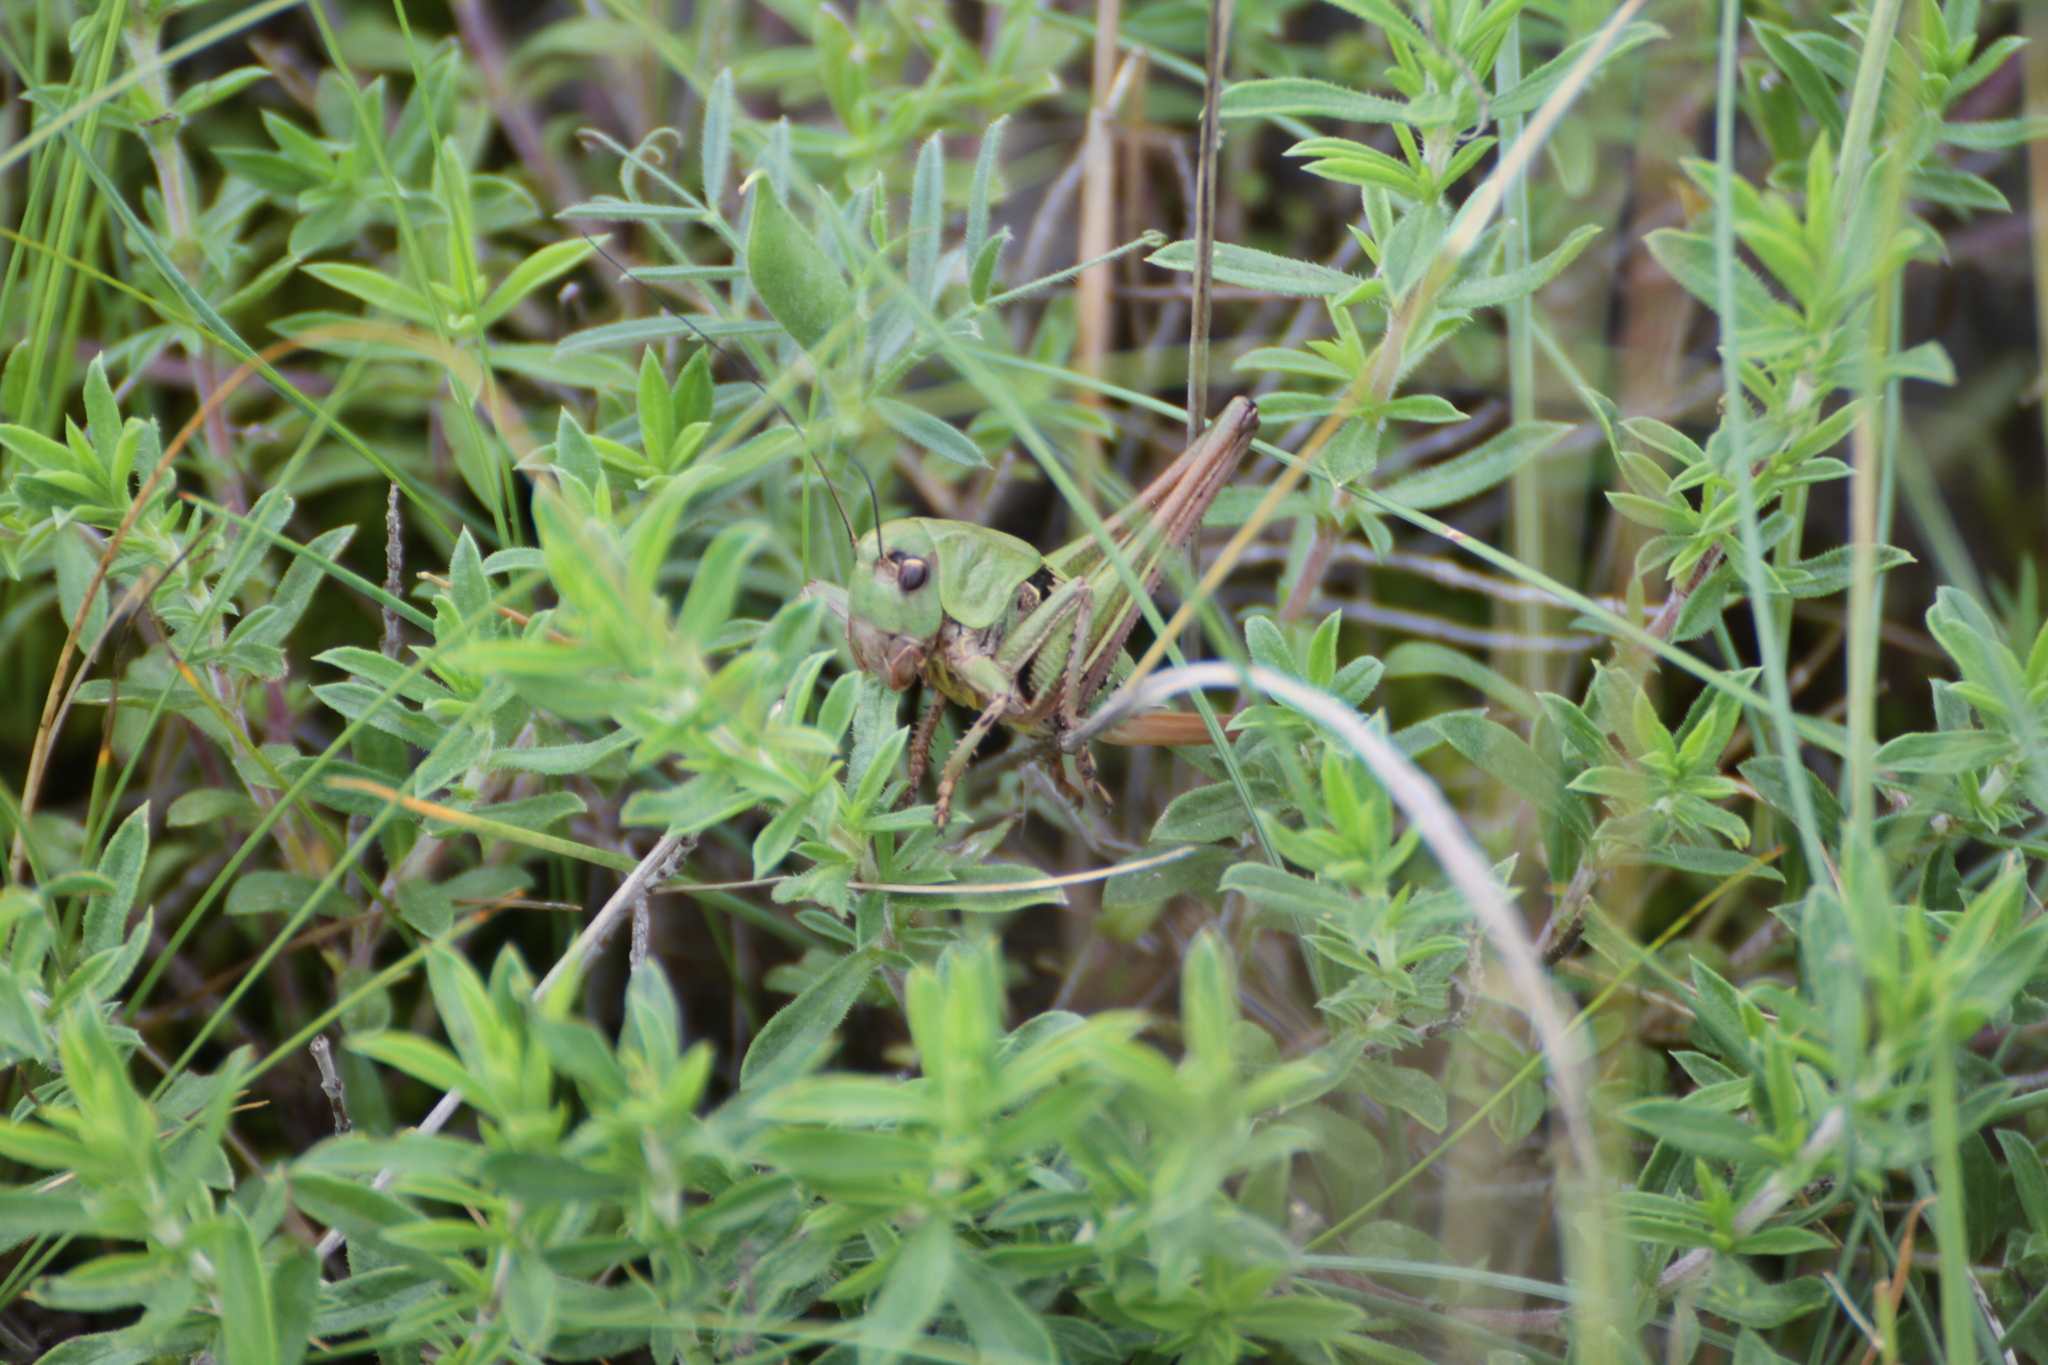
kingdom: Animalia
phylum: Arthropoda
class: Insecta
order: Orthoptera
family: Tettigoniidae
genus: Decticus
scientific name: Decticus verrucivorus
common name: Wart-biter
